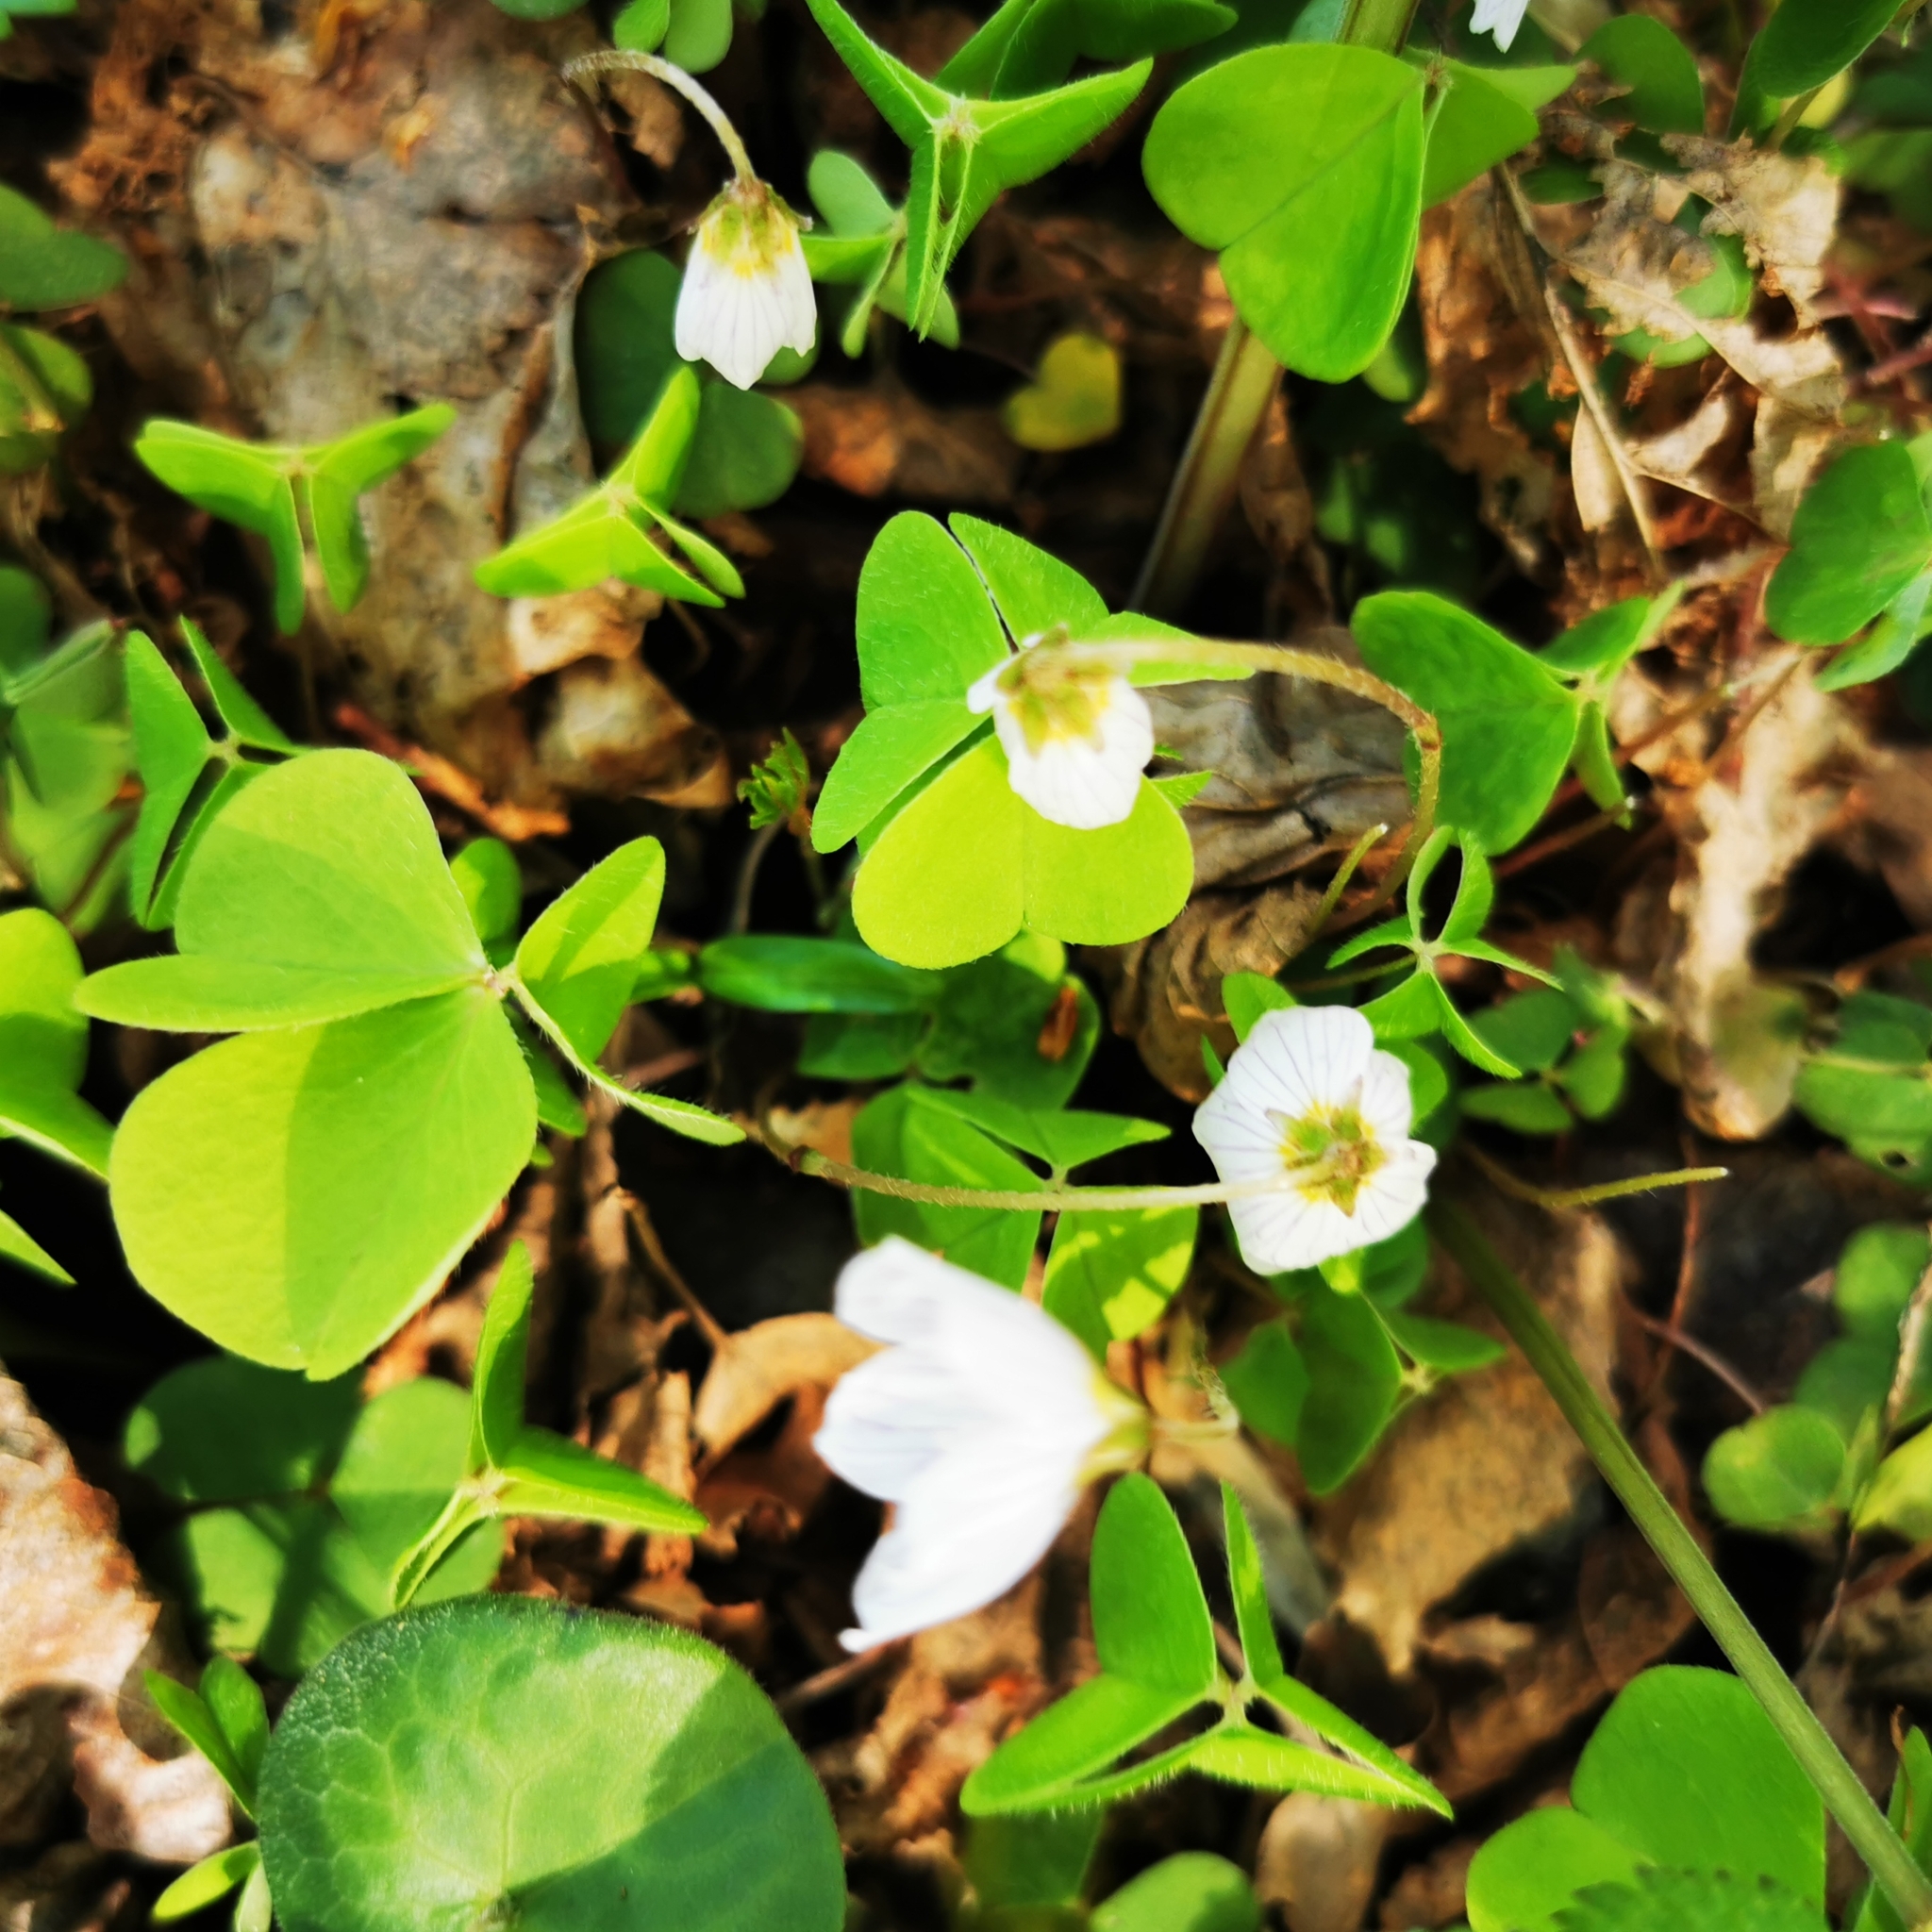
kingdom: Plantae
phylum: Tracheophyta
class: Magnoliopsida
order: Oxalidales
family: Oxalidaceae
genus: Oxalis
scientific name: Oxalis acetosella
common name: Wood-sorrel
